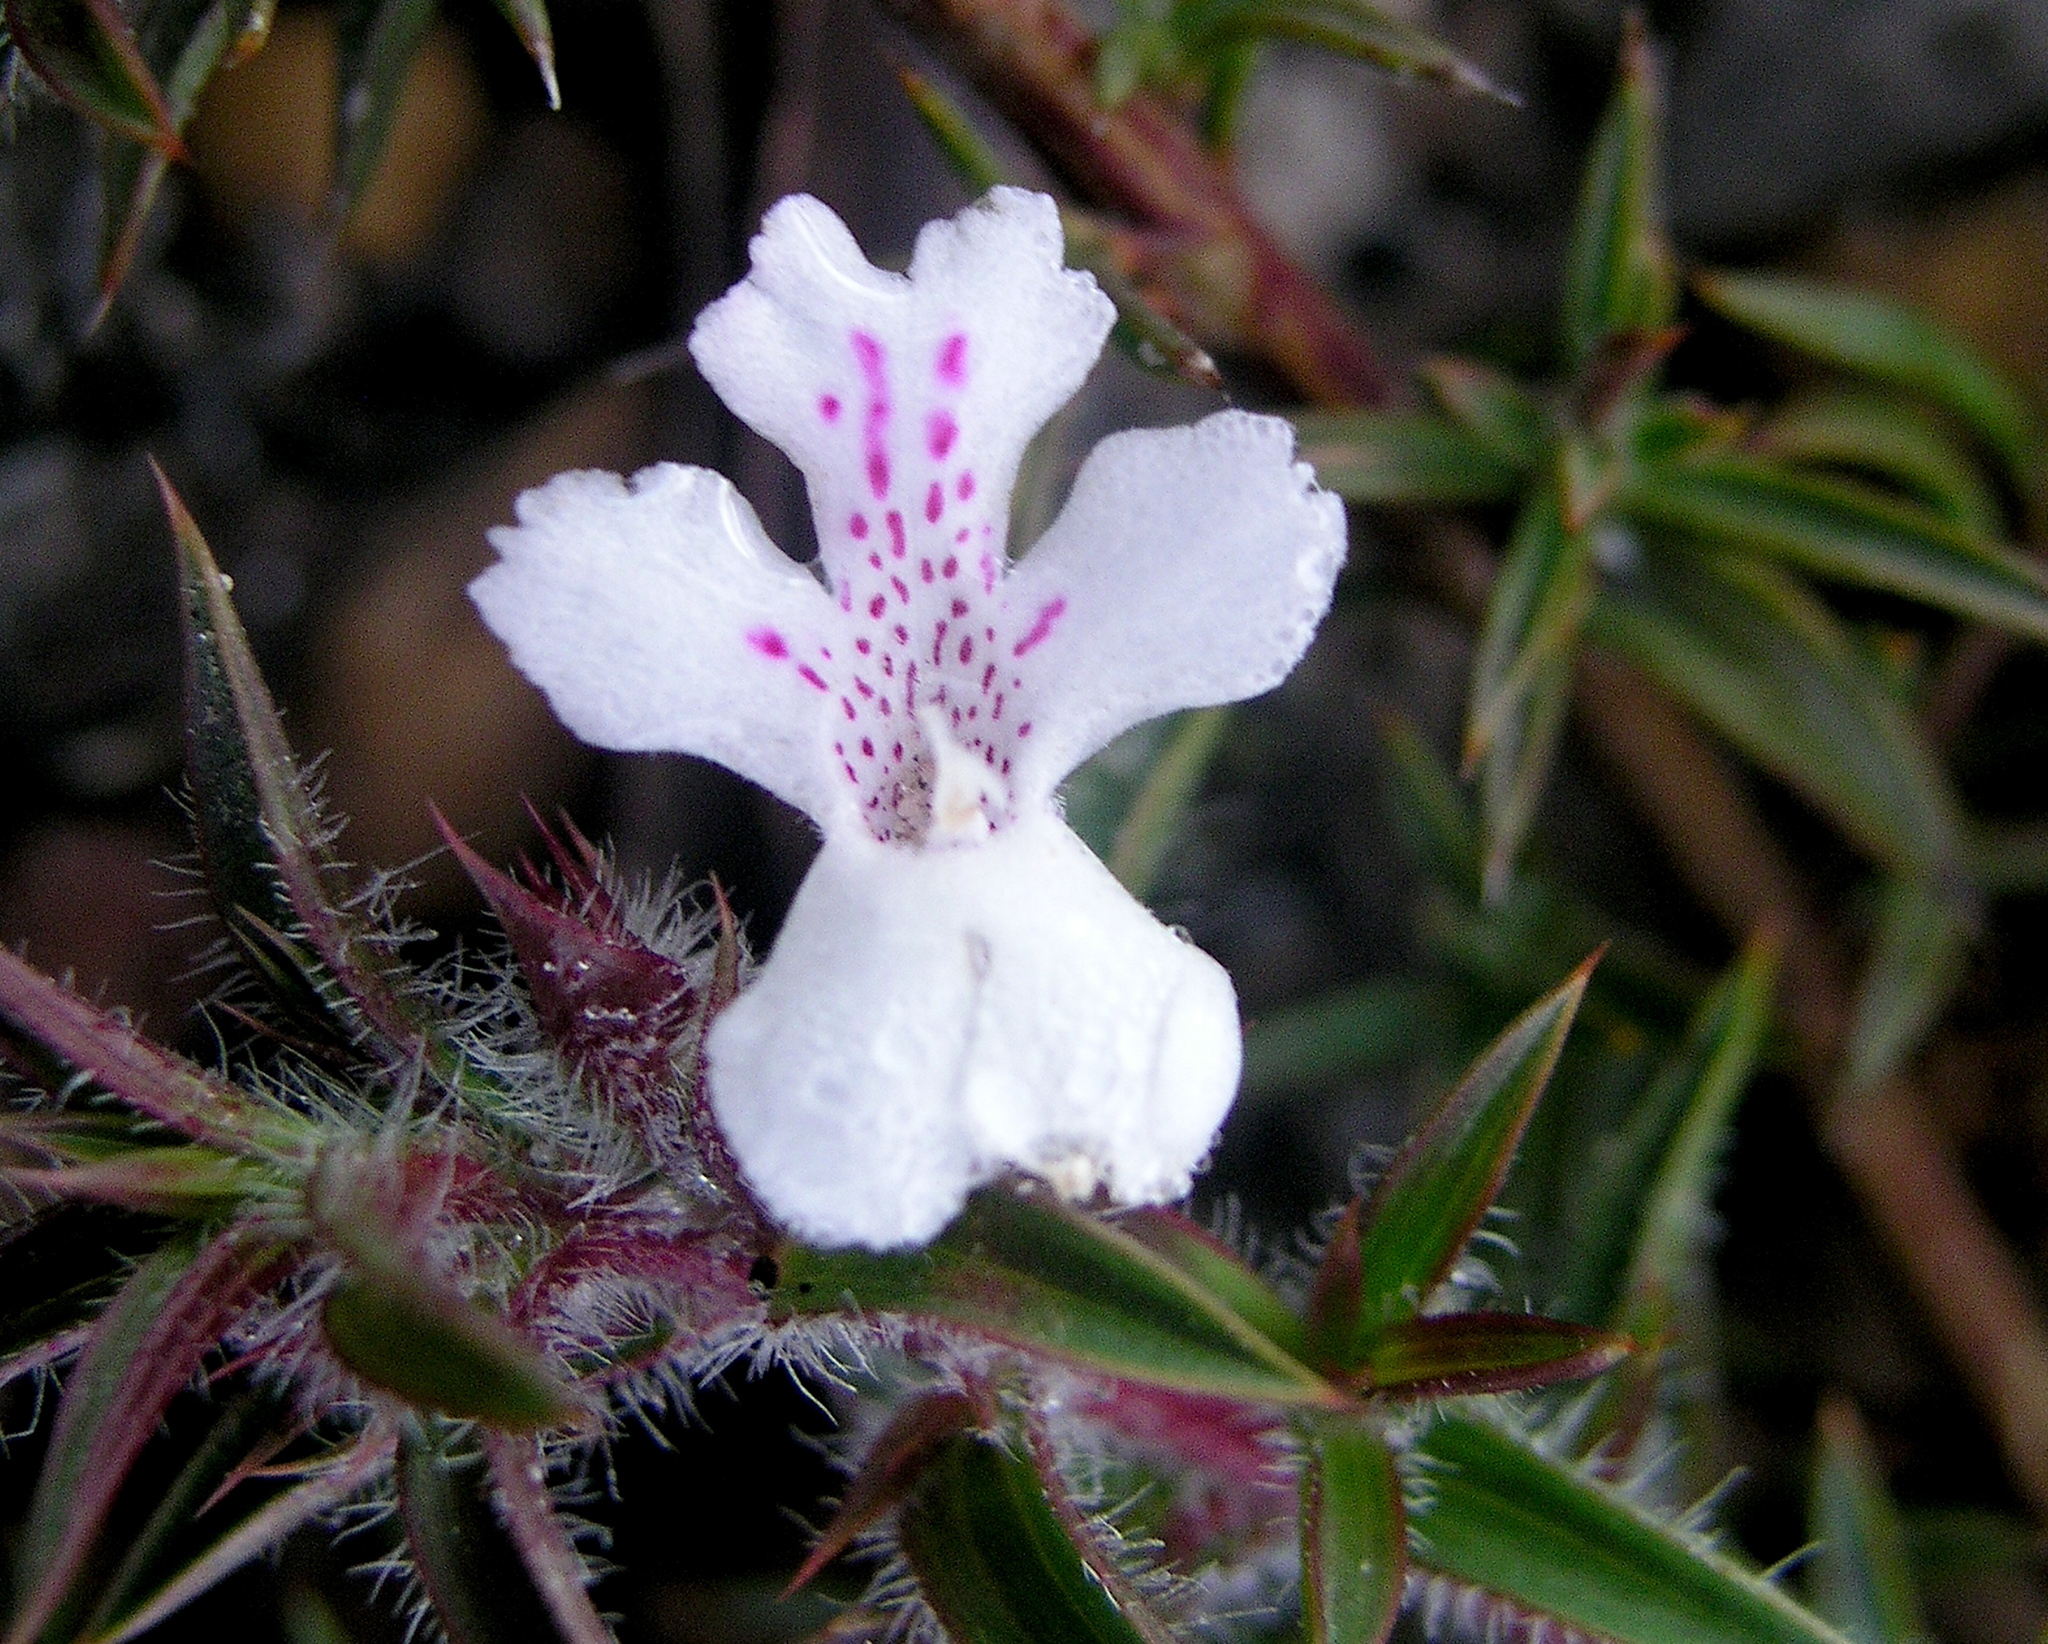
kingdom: Plantae
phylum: Tracheophyta
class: Magnoliopsida
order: Lamiales
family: Lamiaceae
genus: Hemiandra
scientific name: Hemiandra pungens
